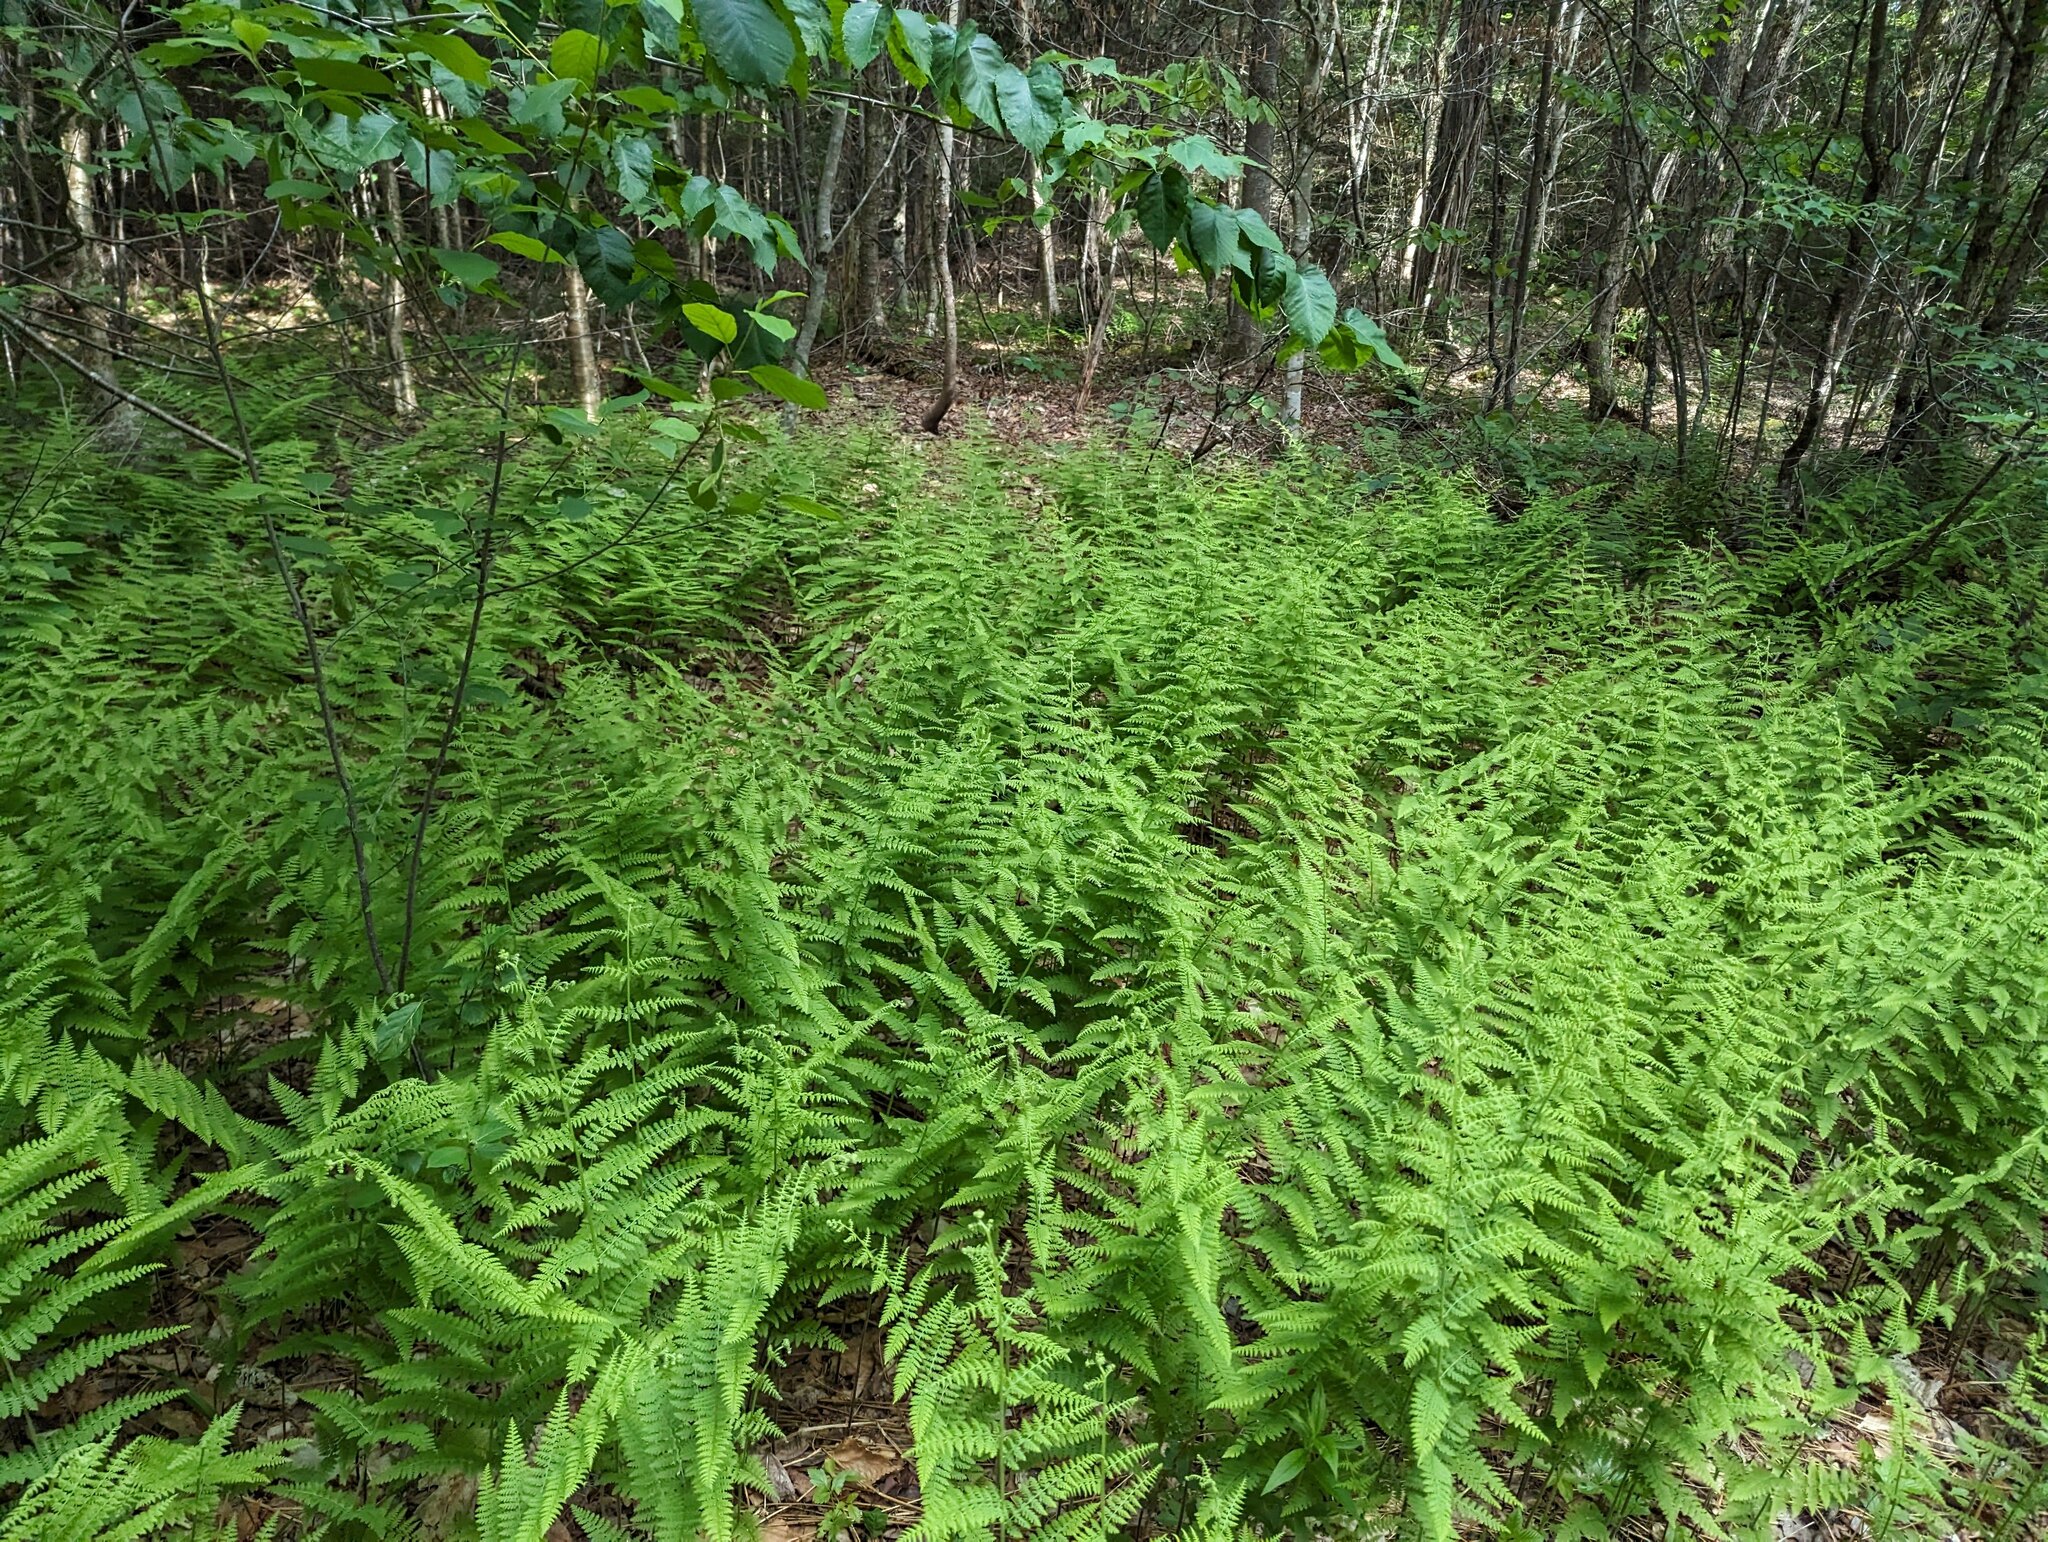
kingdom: Plantae
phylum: Tracheophyta
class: Polypodiopsida
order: Polypodiales
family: Dennstaedtiaceae
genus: Sitobolium
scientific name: Sitobolium punctilobum
